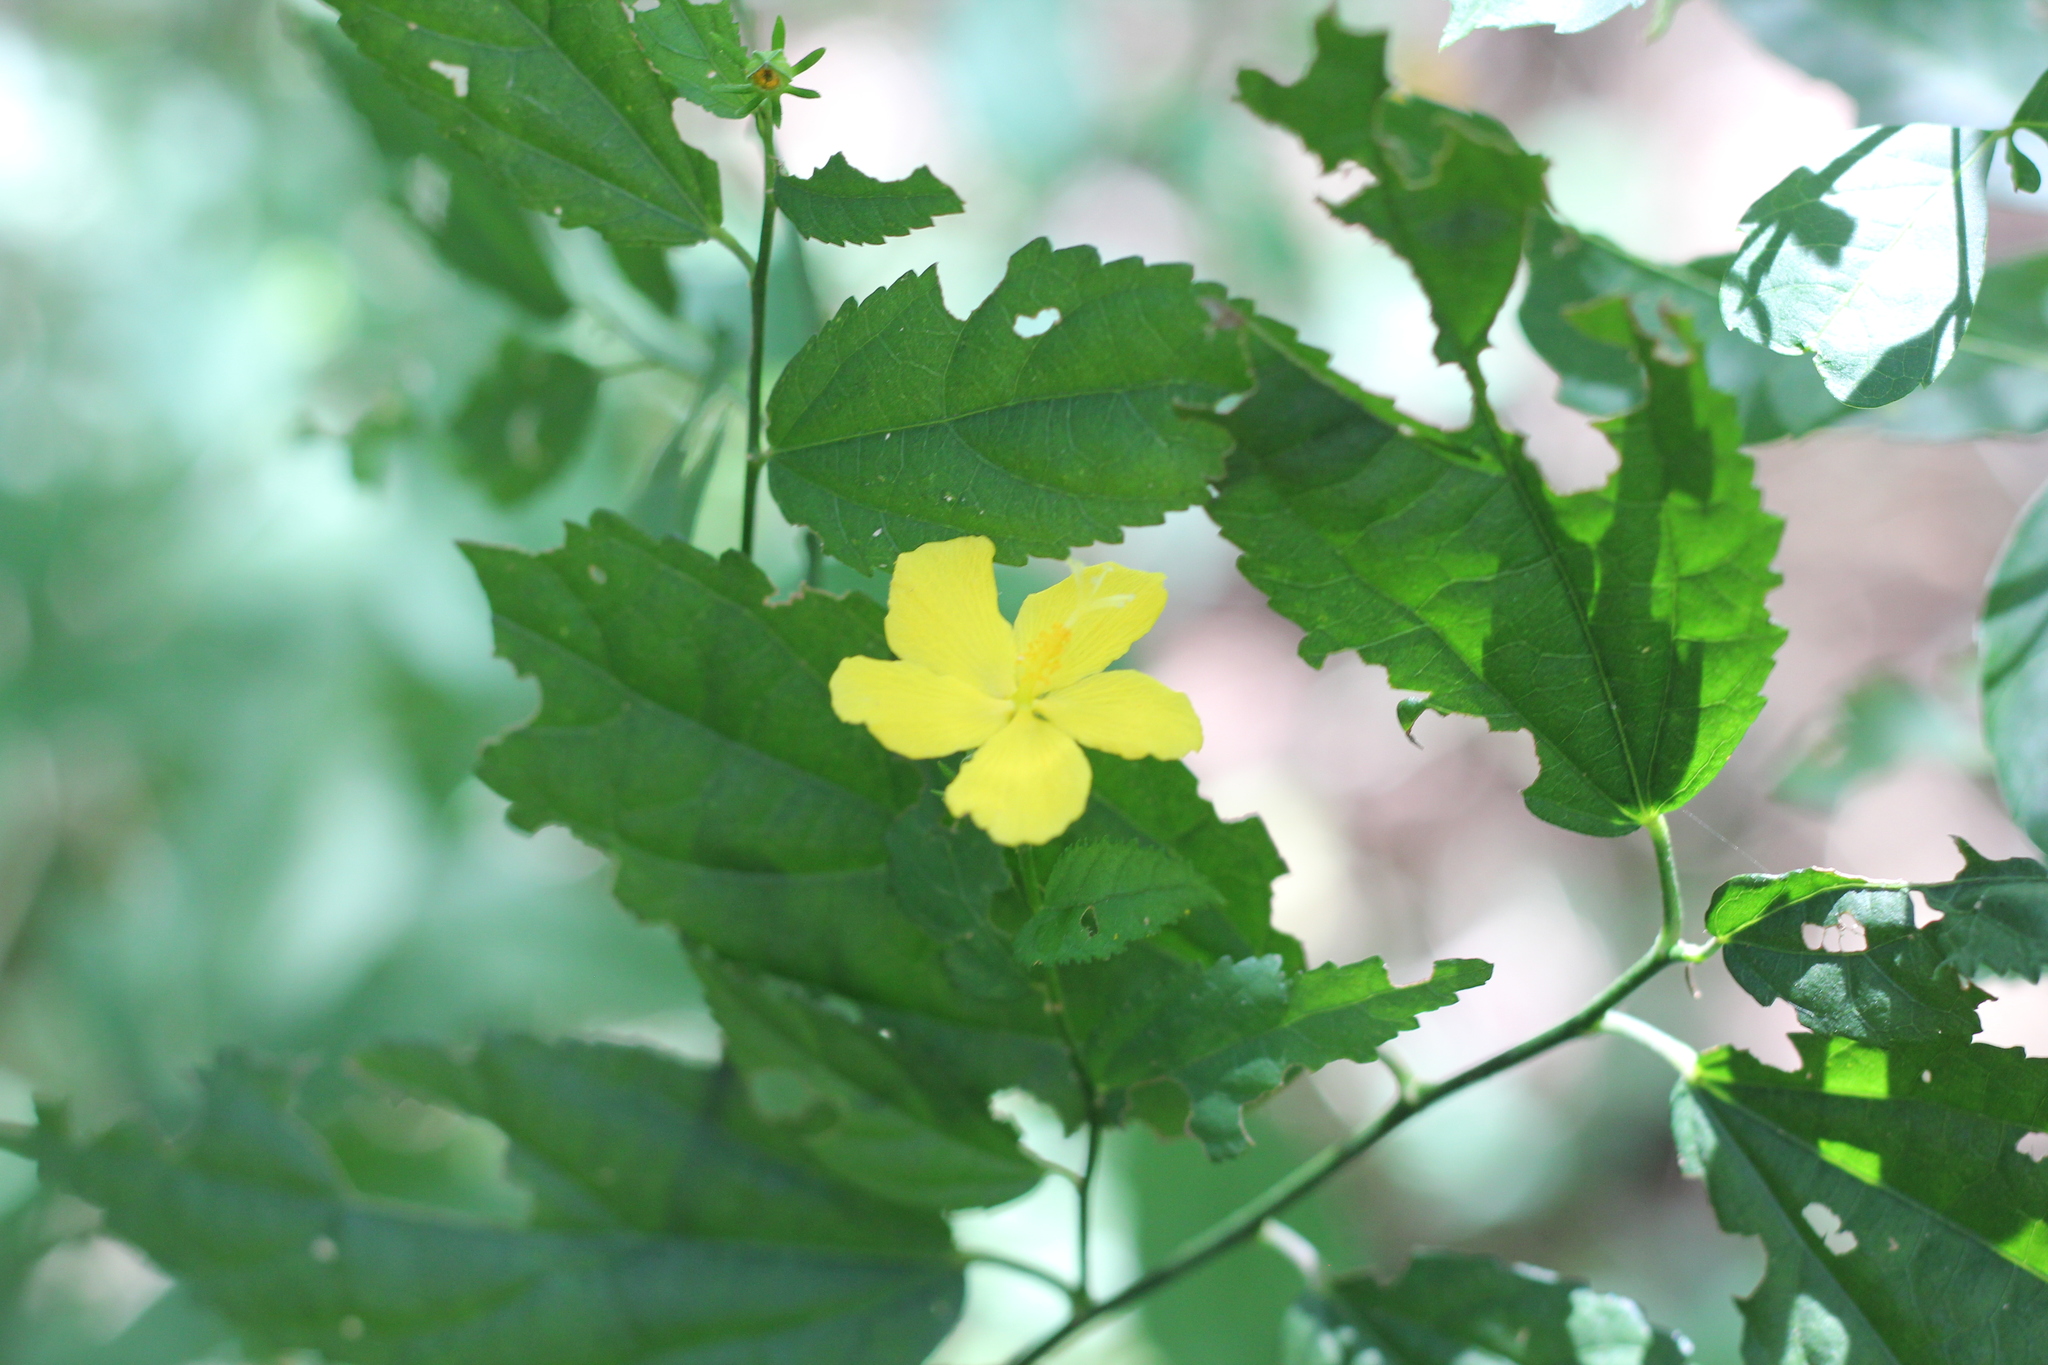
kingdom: Plantae
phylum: Tracheophyta
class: Magnoliopsida
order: Malvales
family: Malvaceae
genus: Pavonia
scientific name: Pavonia sepium
